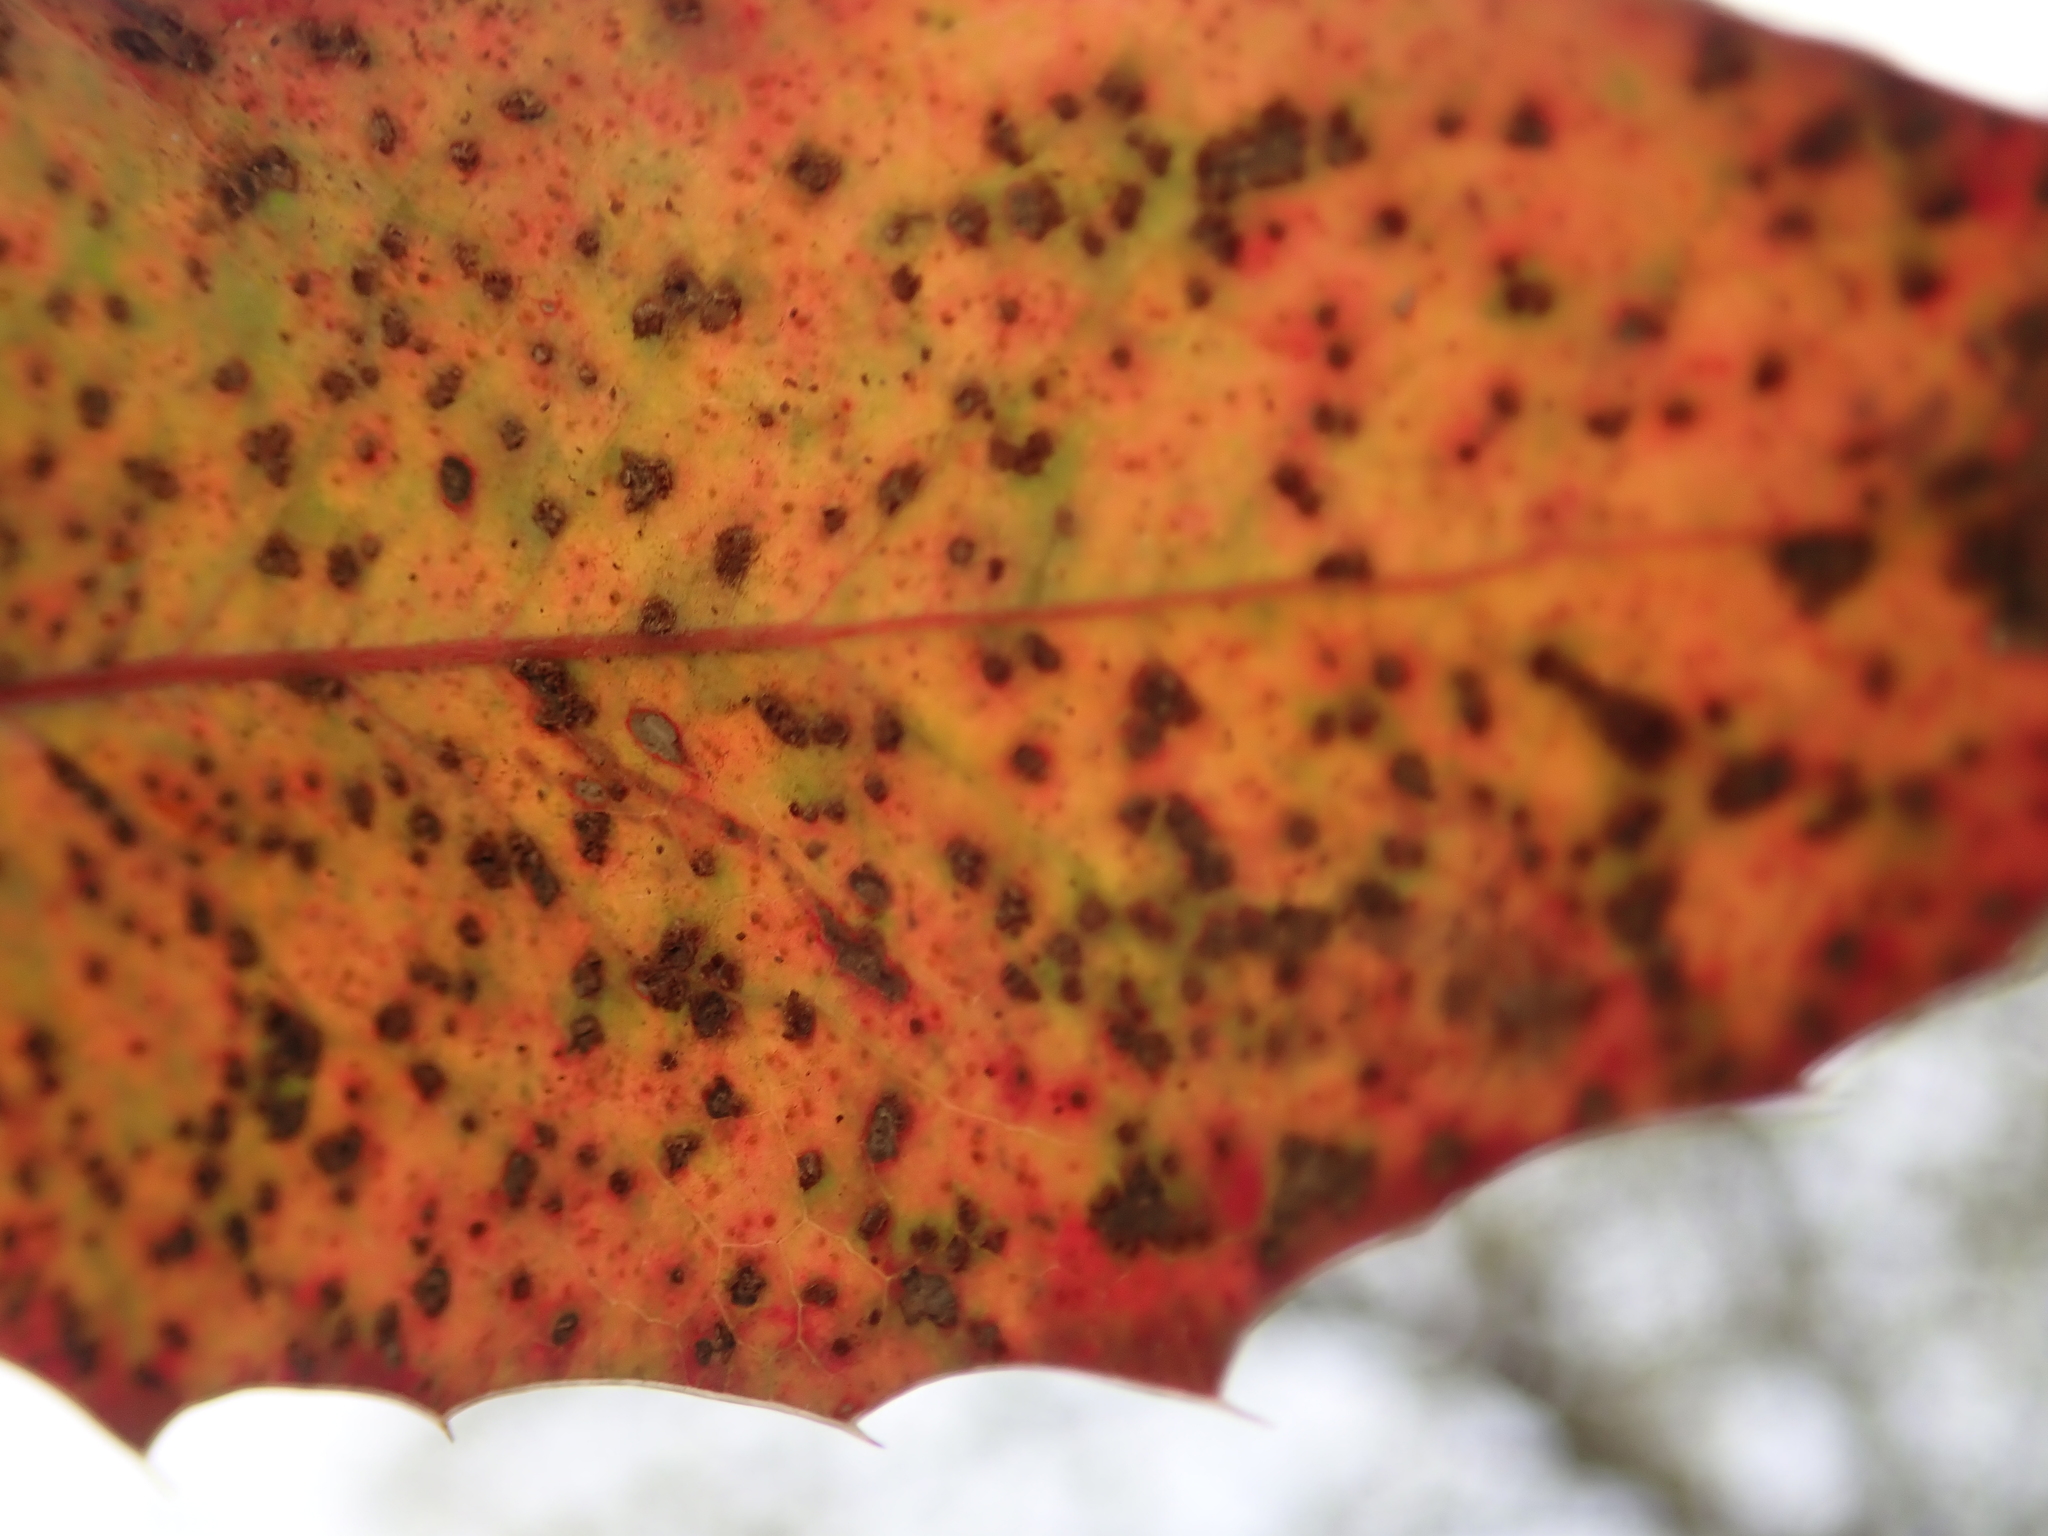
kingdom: Fungi
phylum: Basidiomycota
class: Pucciniomycetes
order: Pucciniales
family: Pucciniaceae
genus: Cumminsiella
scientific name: Cumminsiella mirabilissima
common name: Mahonia rust
